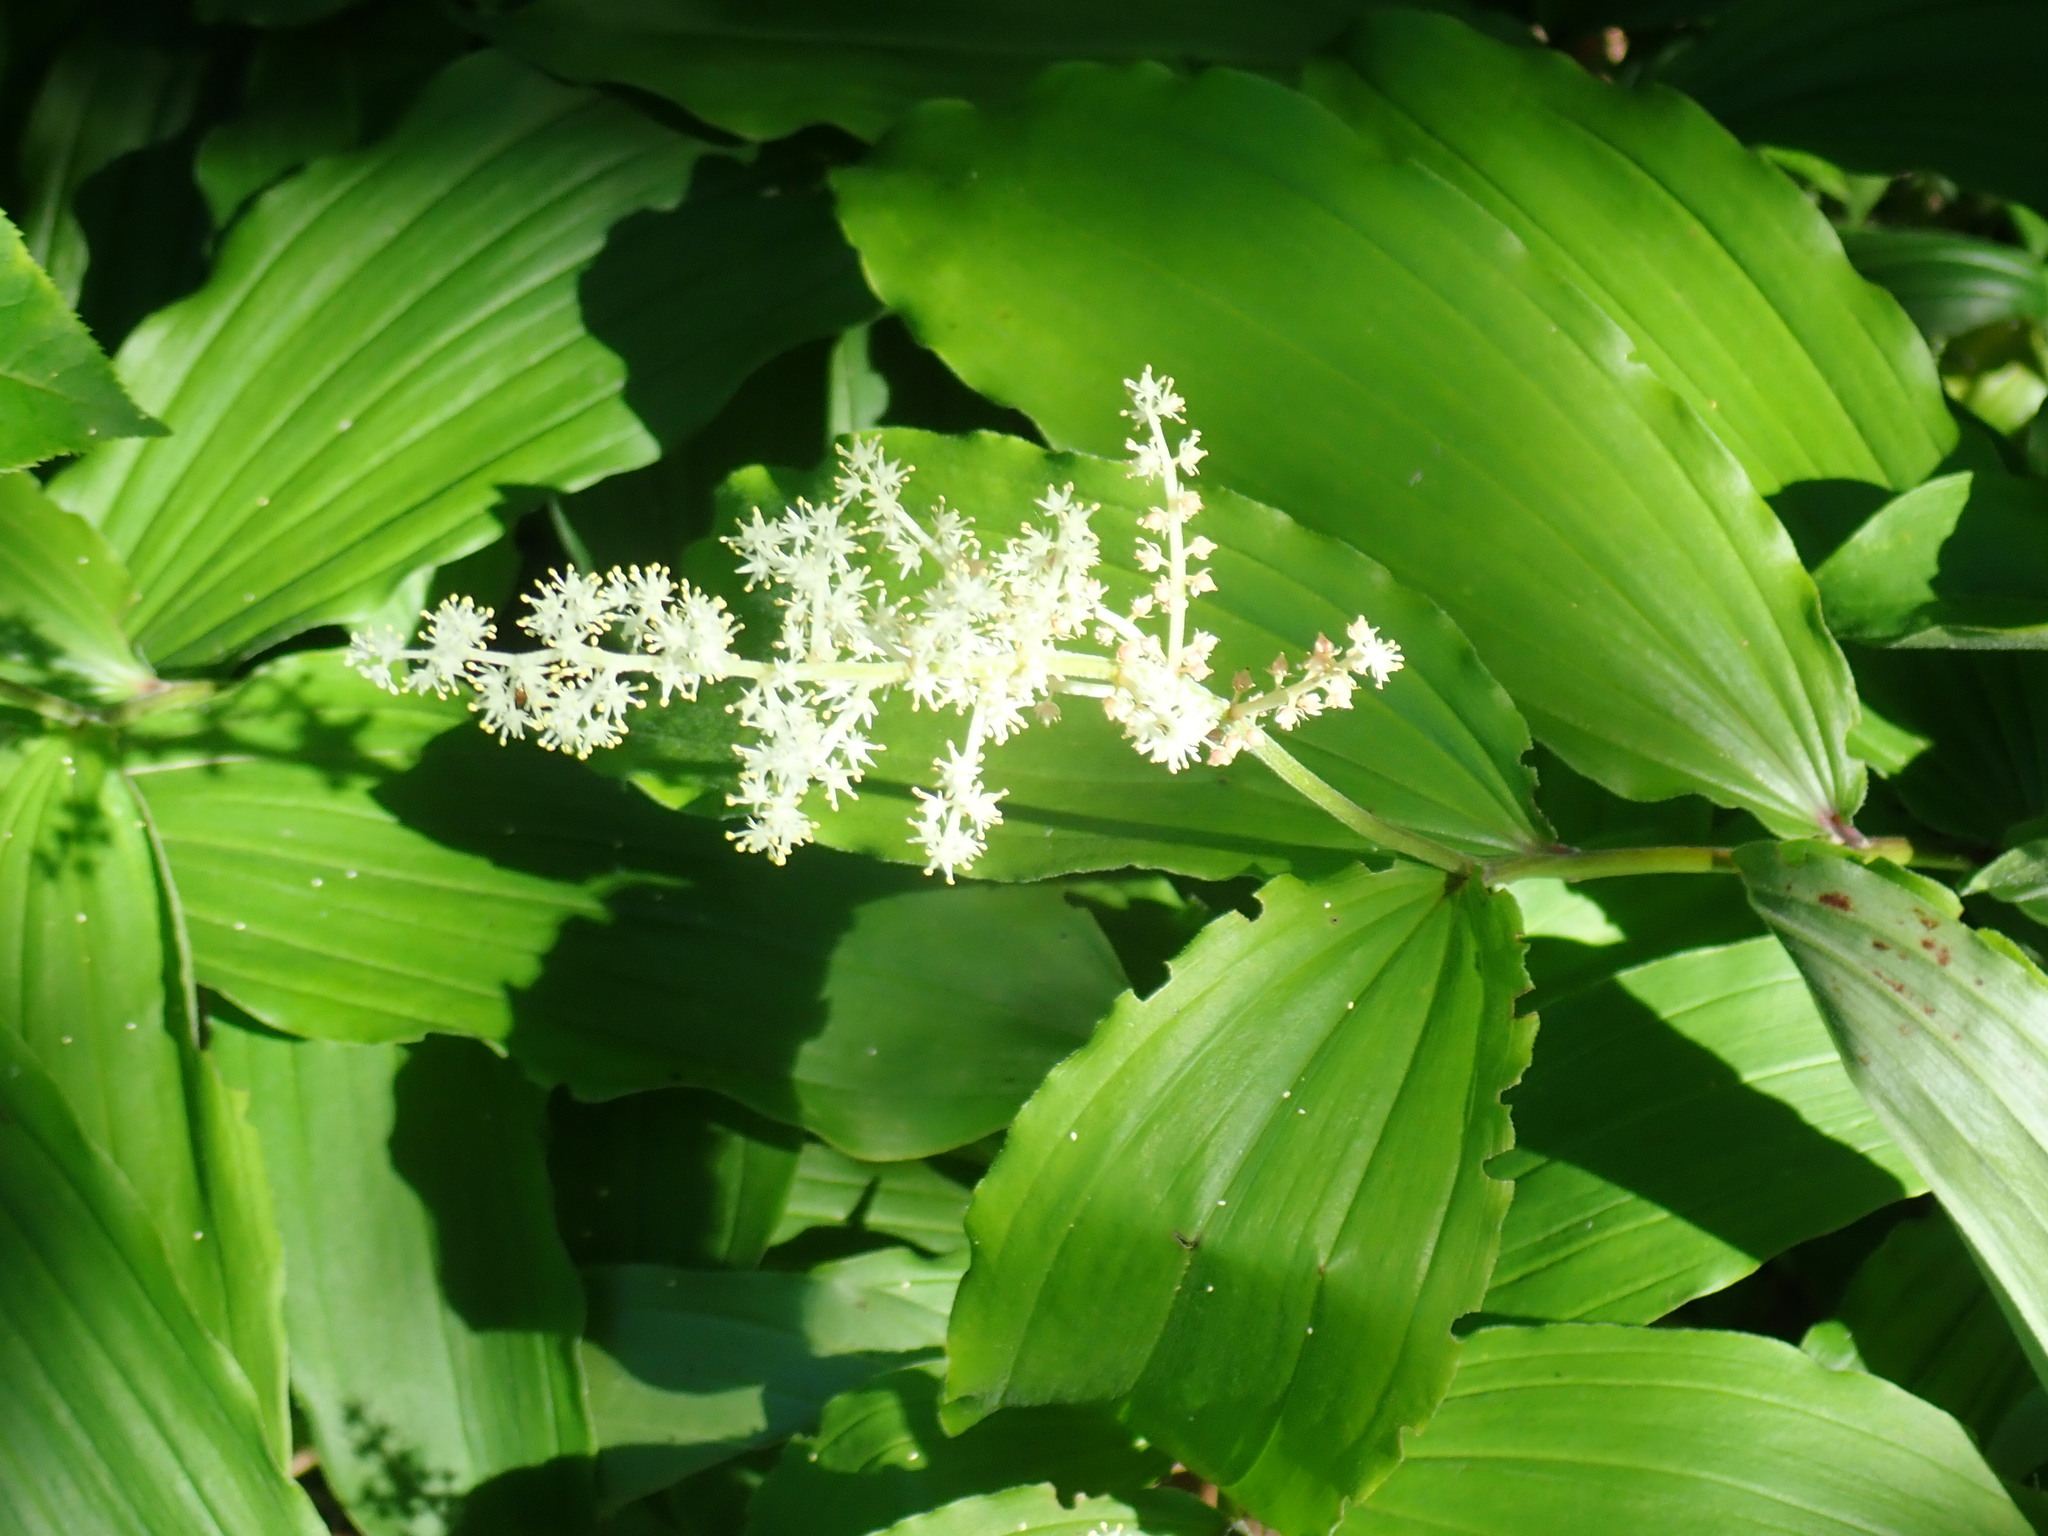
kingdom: Plantae
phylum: Tracheophyta
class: Liliopsida
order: Asparagales
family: Asparagaceae
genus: Maianthemum
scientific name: Maianthemum racemosum
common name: False spikenard
